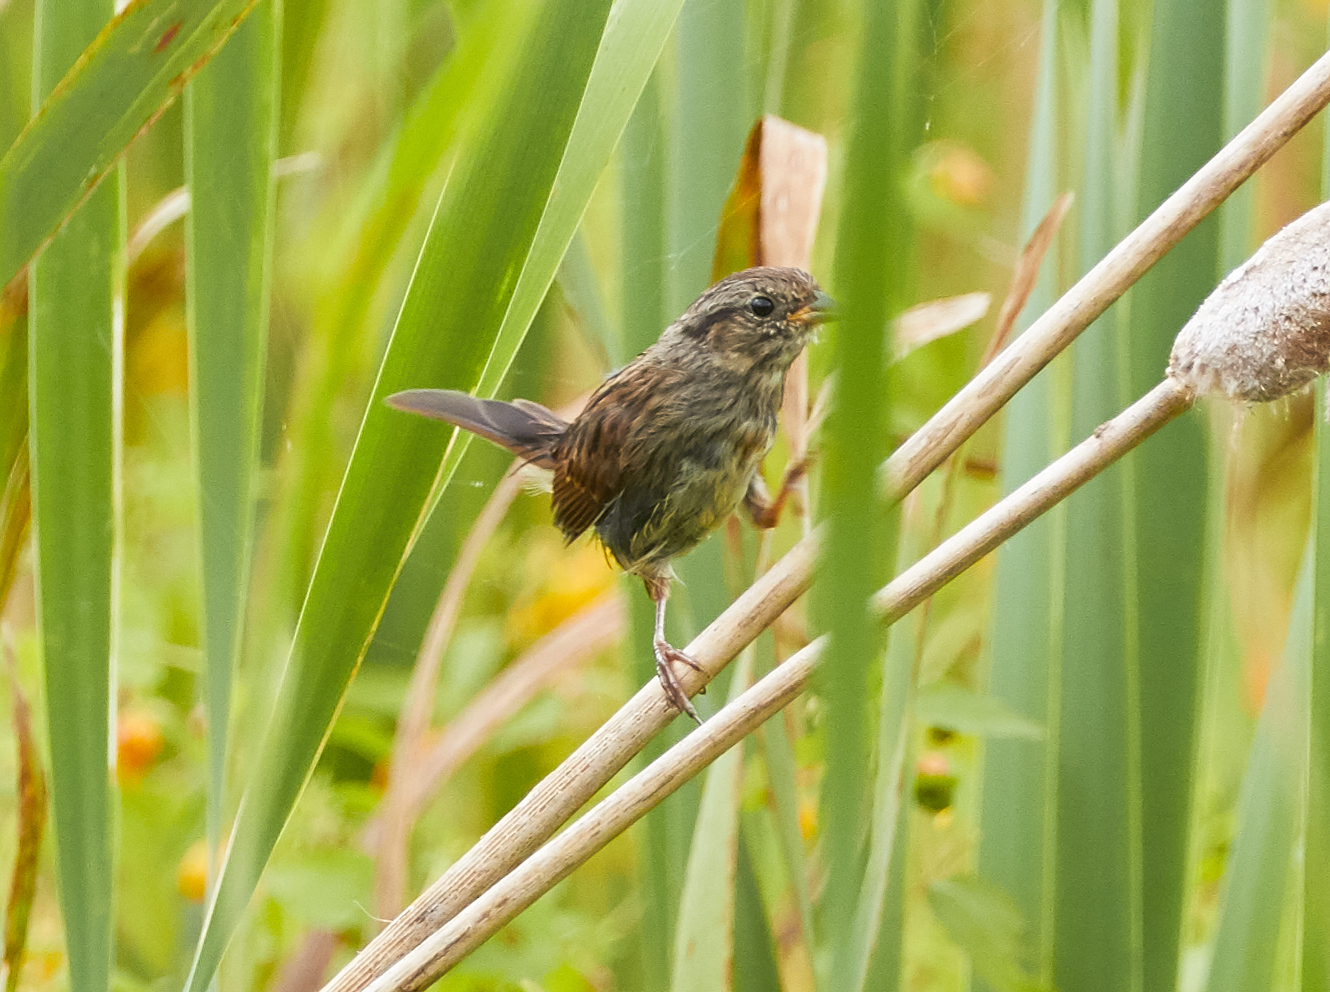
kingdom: Animalia
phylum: Chordata
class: Aves
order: Passeriformes
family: Passerellidae
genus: Melospiza
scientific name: Melospiza georgiana
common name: Swamp sparrow
